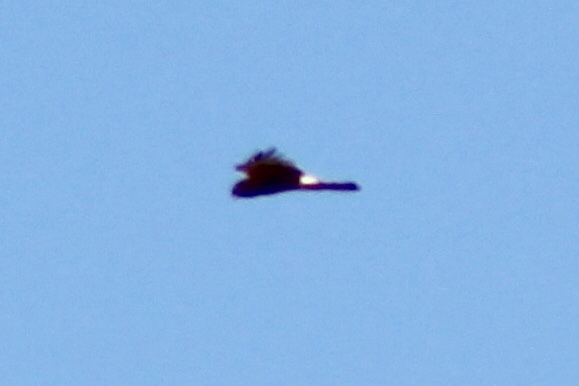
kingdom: Animalia
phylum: Chordata
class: Aves
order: Accipitriformes
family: Accipitridae
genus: Circus
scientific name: Circus cyaneus
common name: Hen harrier
